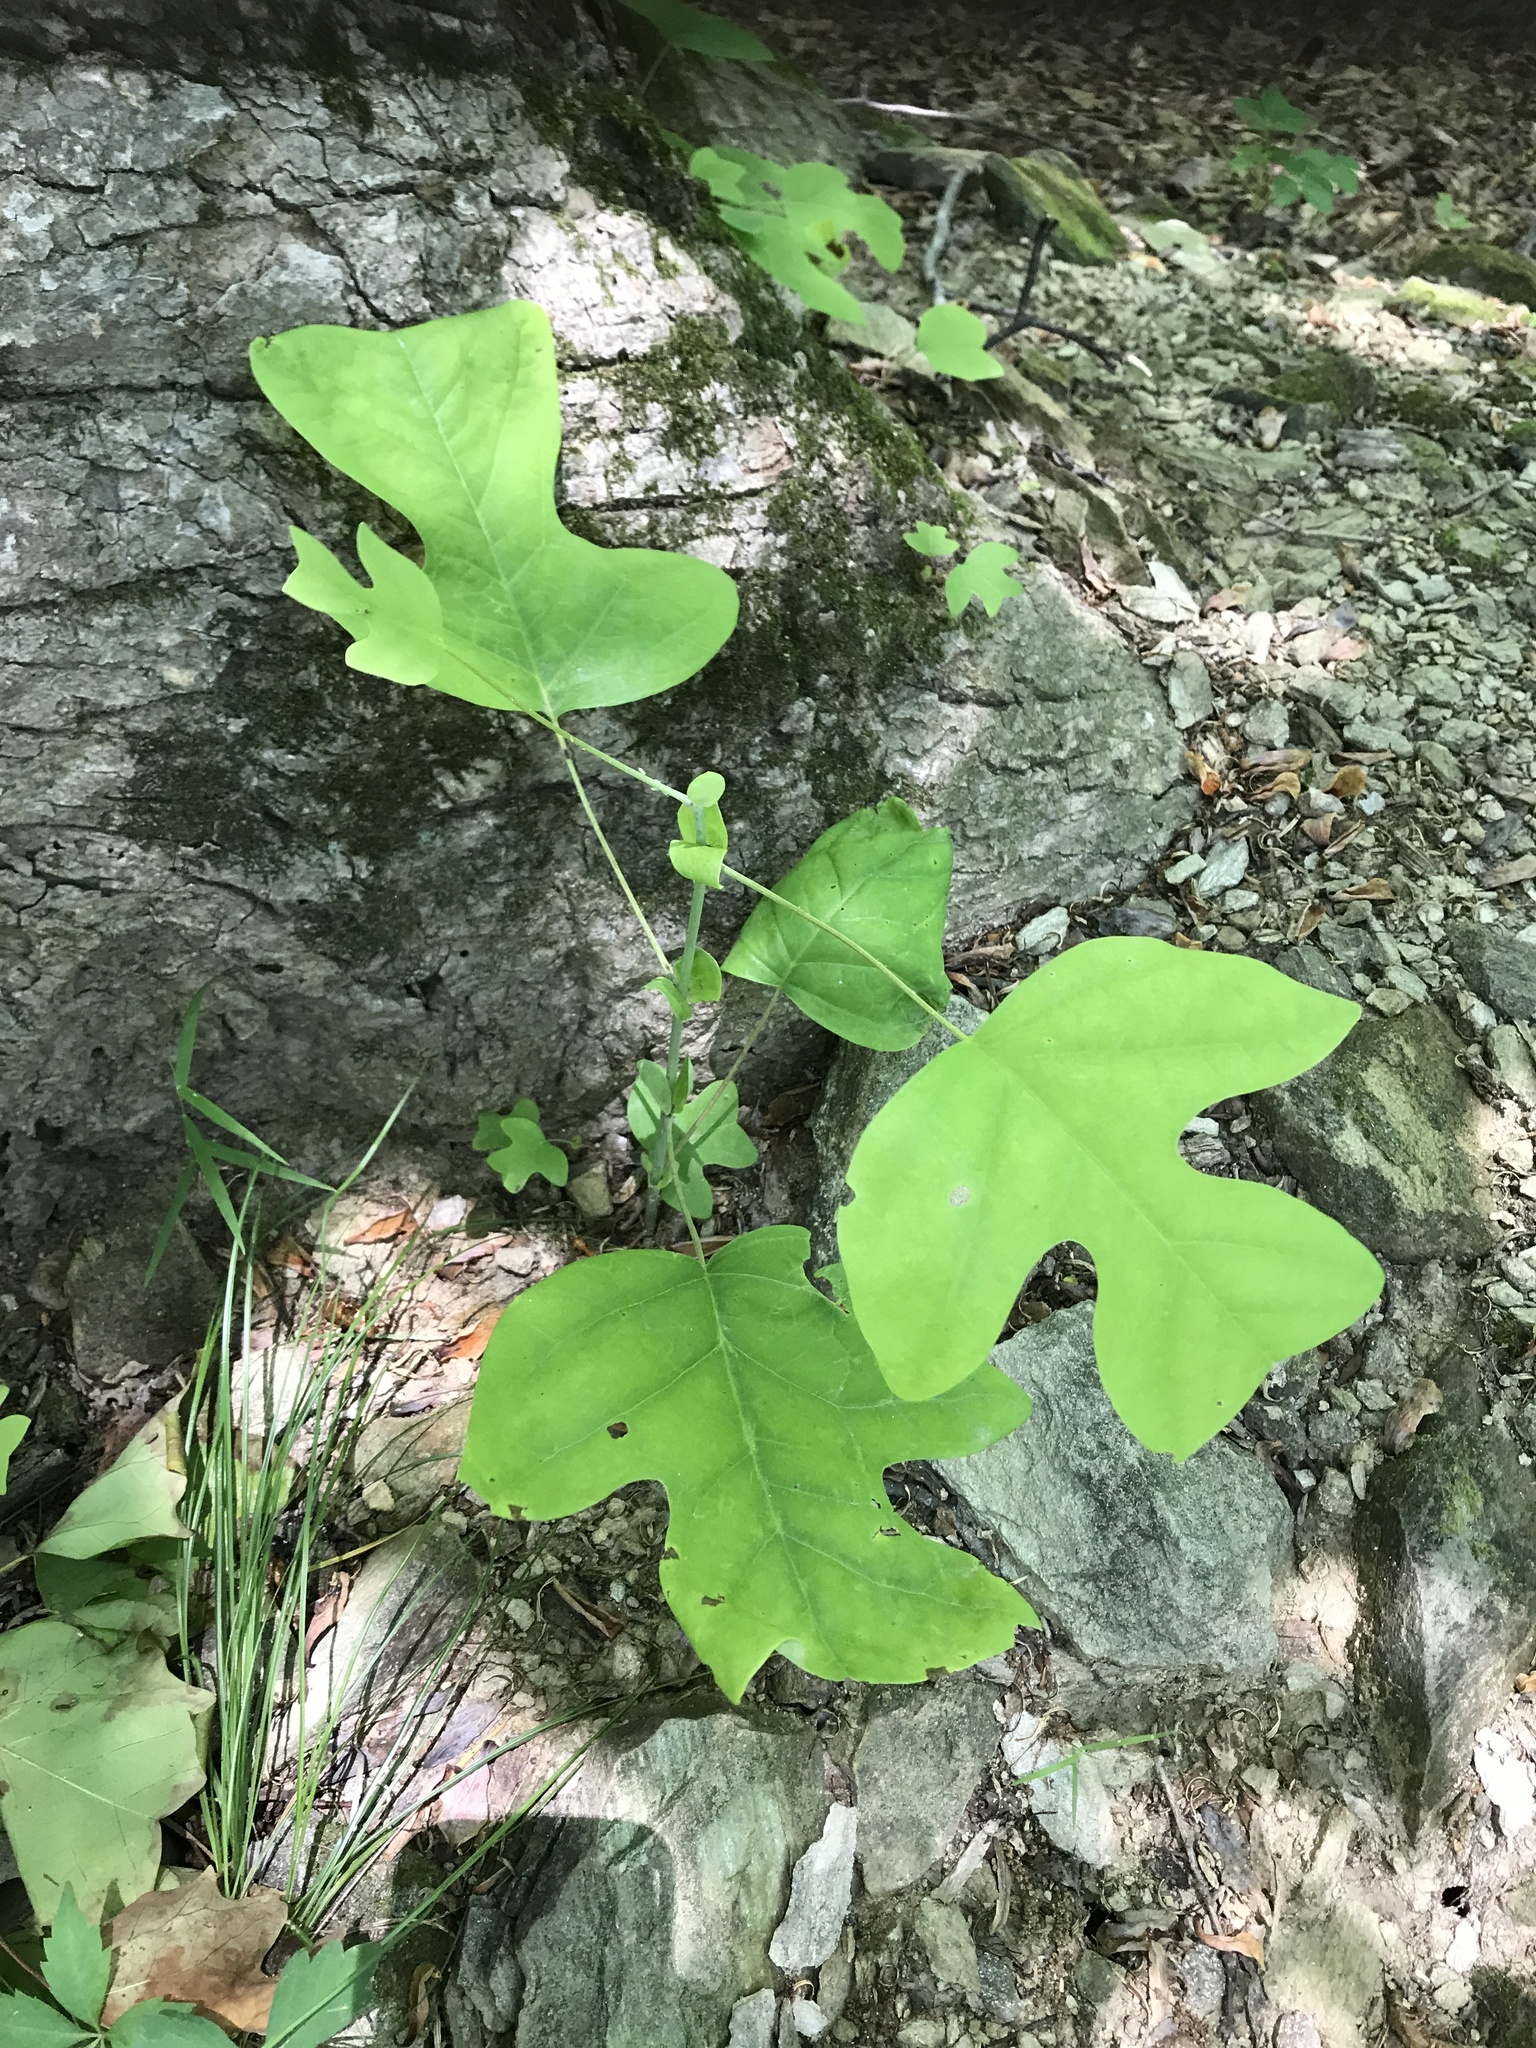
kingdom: Plantae
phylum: Tracheophyta
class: Magnoliopsida
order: Magnoliales
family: Magnoliaceae
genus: Liriodendron
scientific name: Liriodendron tulipifera
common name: Tulip tree
